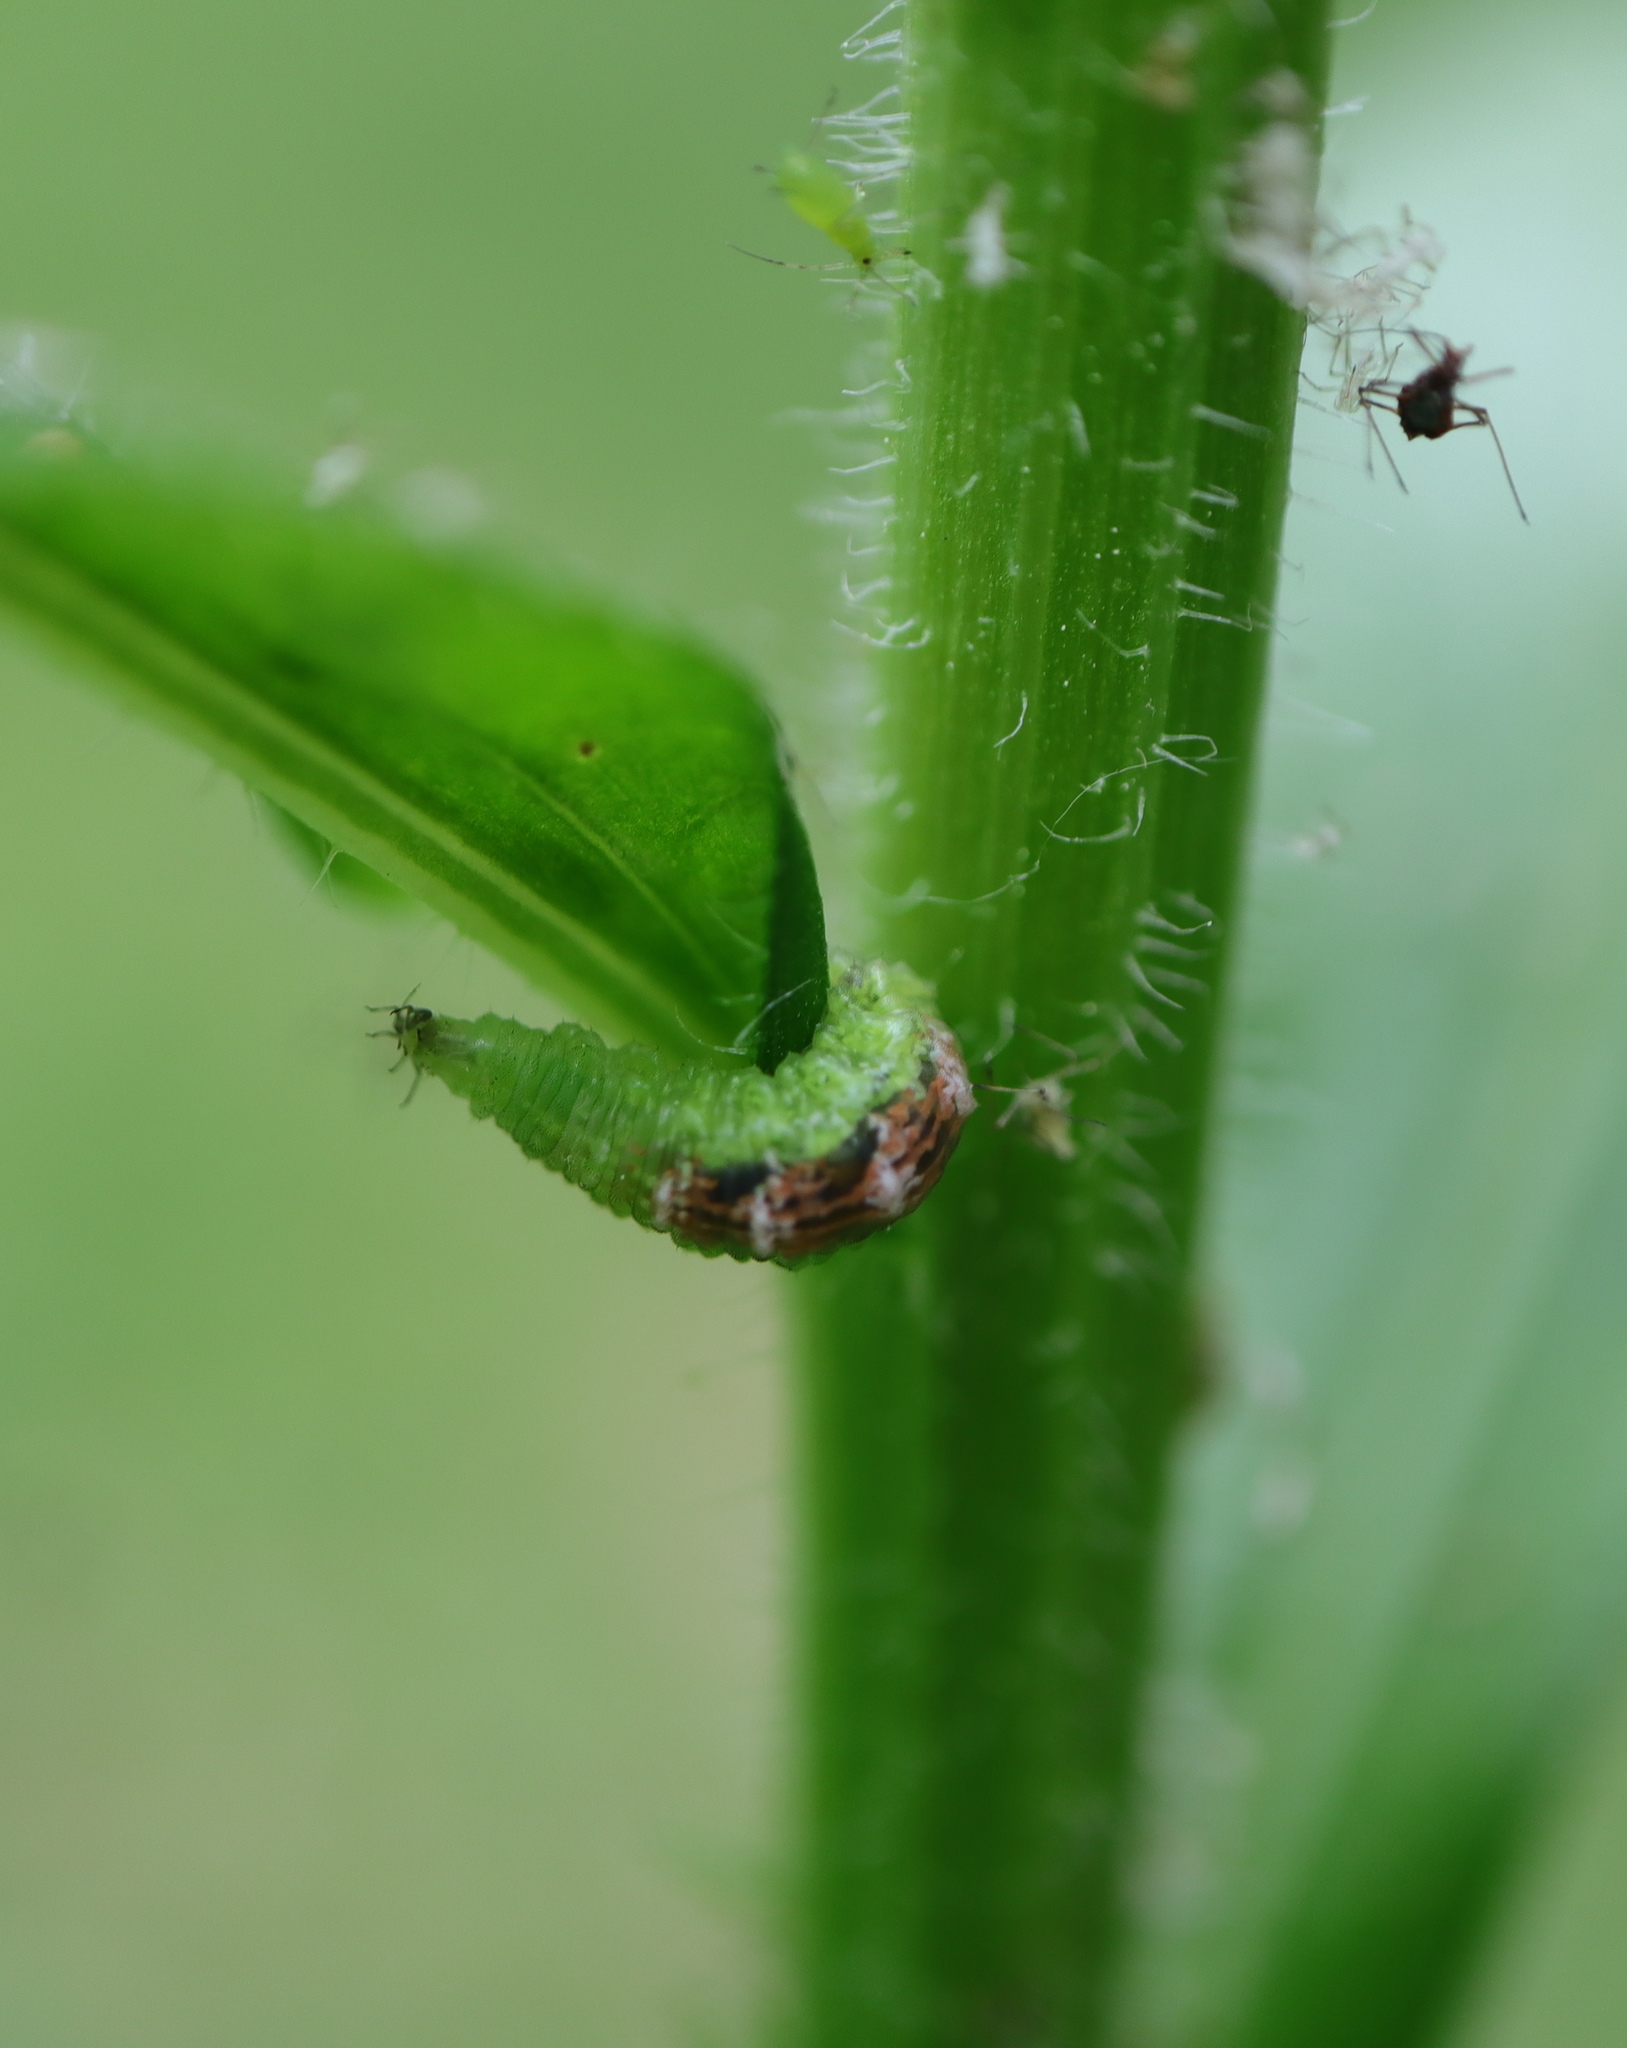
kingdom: Animalia
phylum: Arthropoda
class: Insecta
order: Diptera
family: Syrphidae
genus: Eupeodes
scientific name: Eupeodes pomus
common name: Short-tailed aphideater
